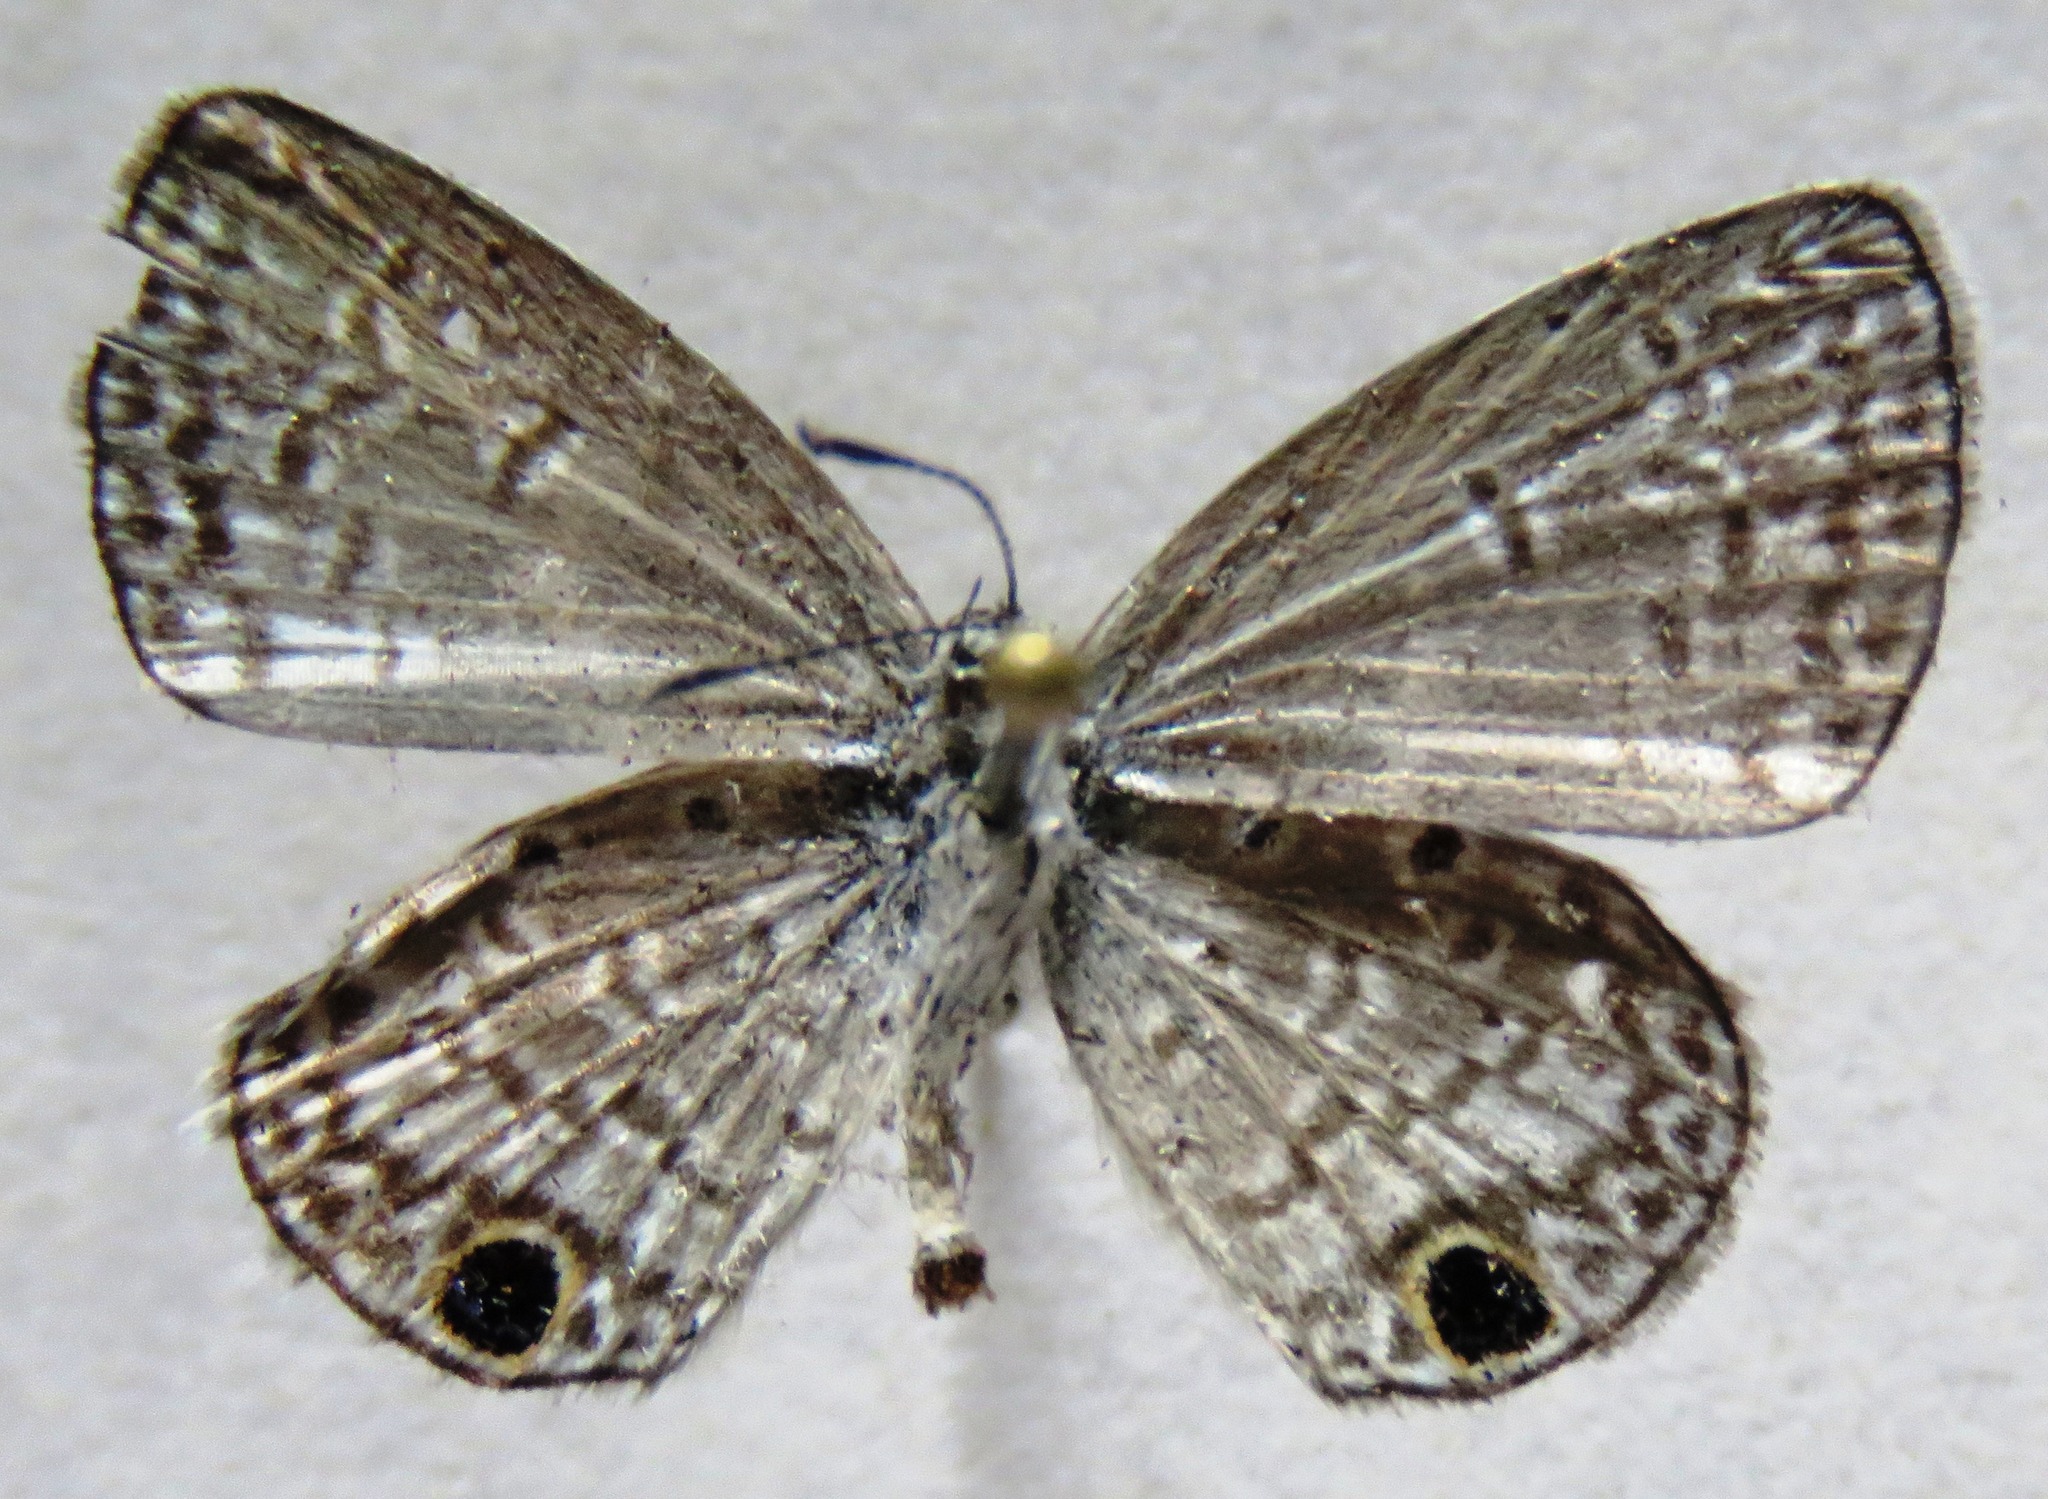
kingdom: Animalia
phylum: Arthropoda
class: Insecta
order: Lepidoptera
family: Lycaenidae
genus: Hemiargus
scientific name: Hemiargus ceraunus
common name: Ceraunus blue
